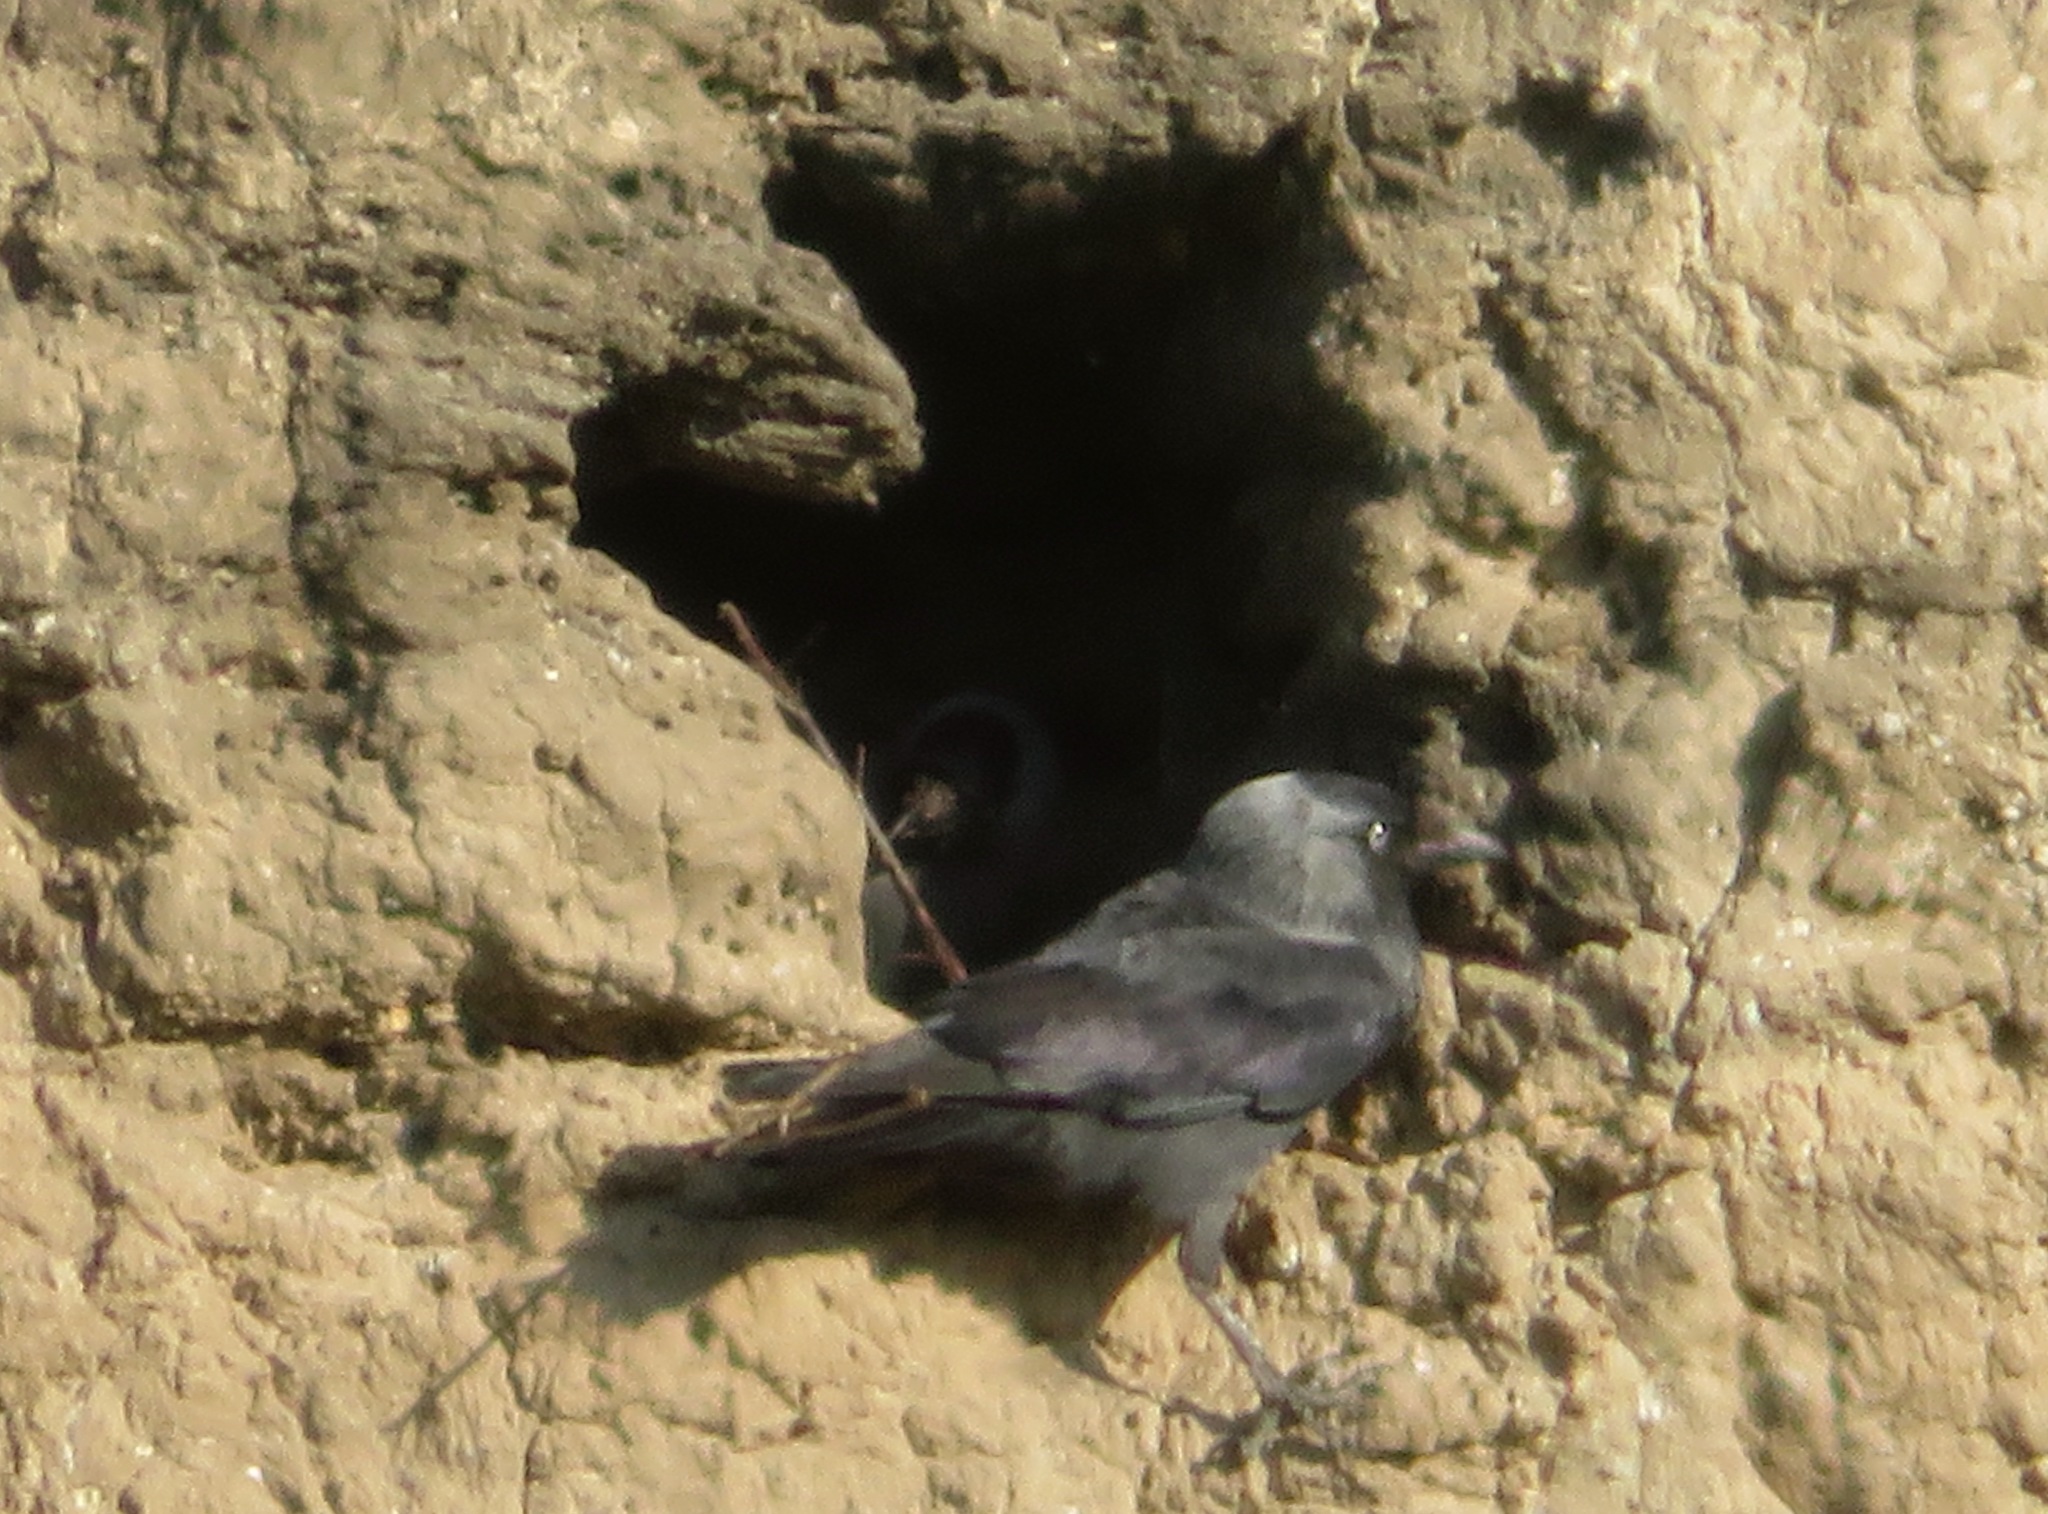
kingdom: Animalia
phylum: Chordata
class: Aves
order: Passeriformes
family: Corvidae
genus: Coloeus
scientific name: Coloeus monedula
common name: Western jackdaw
